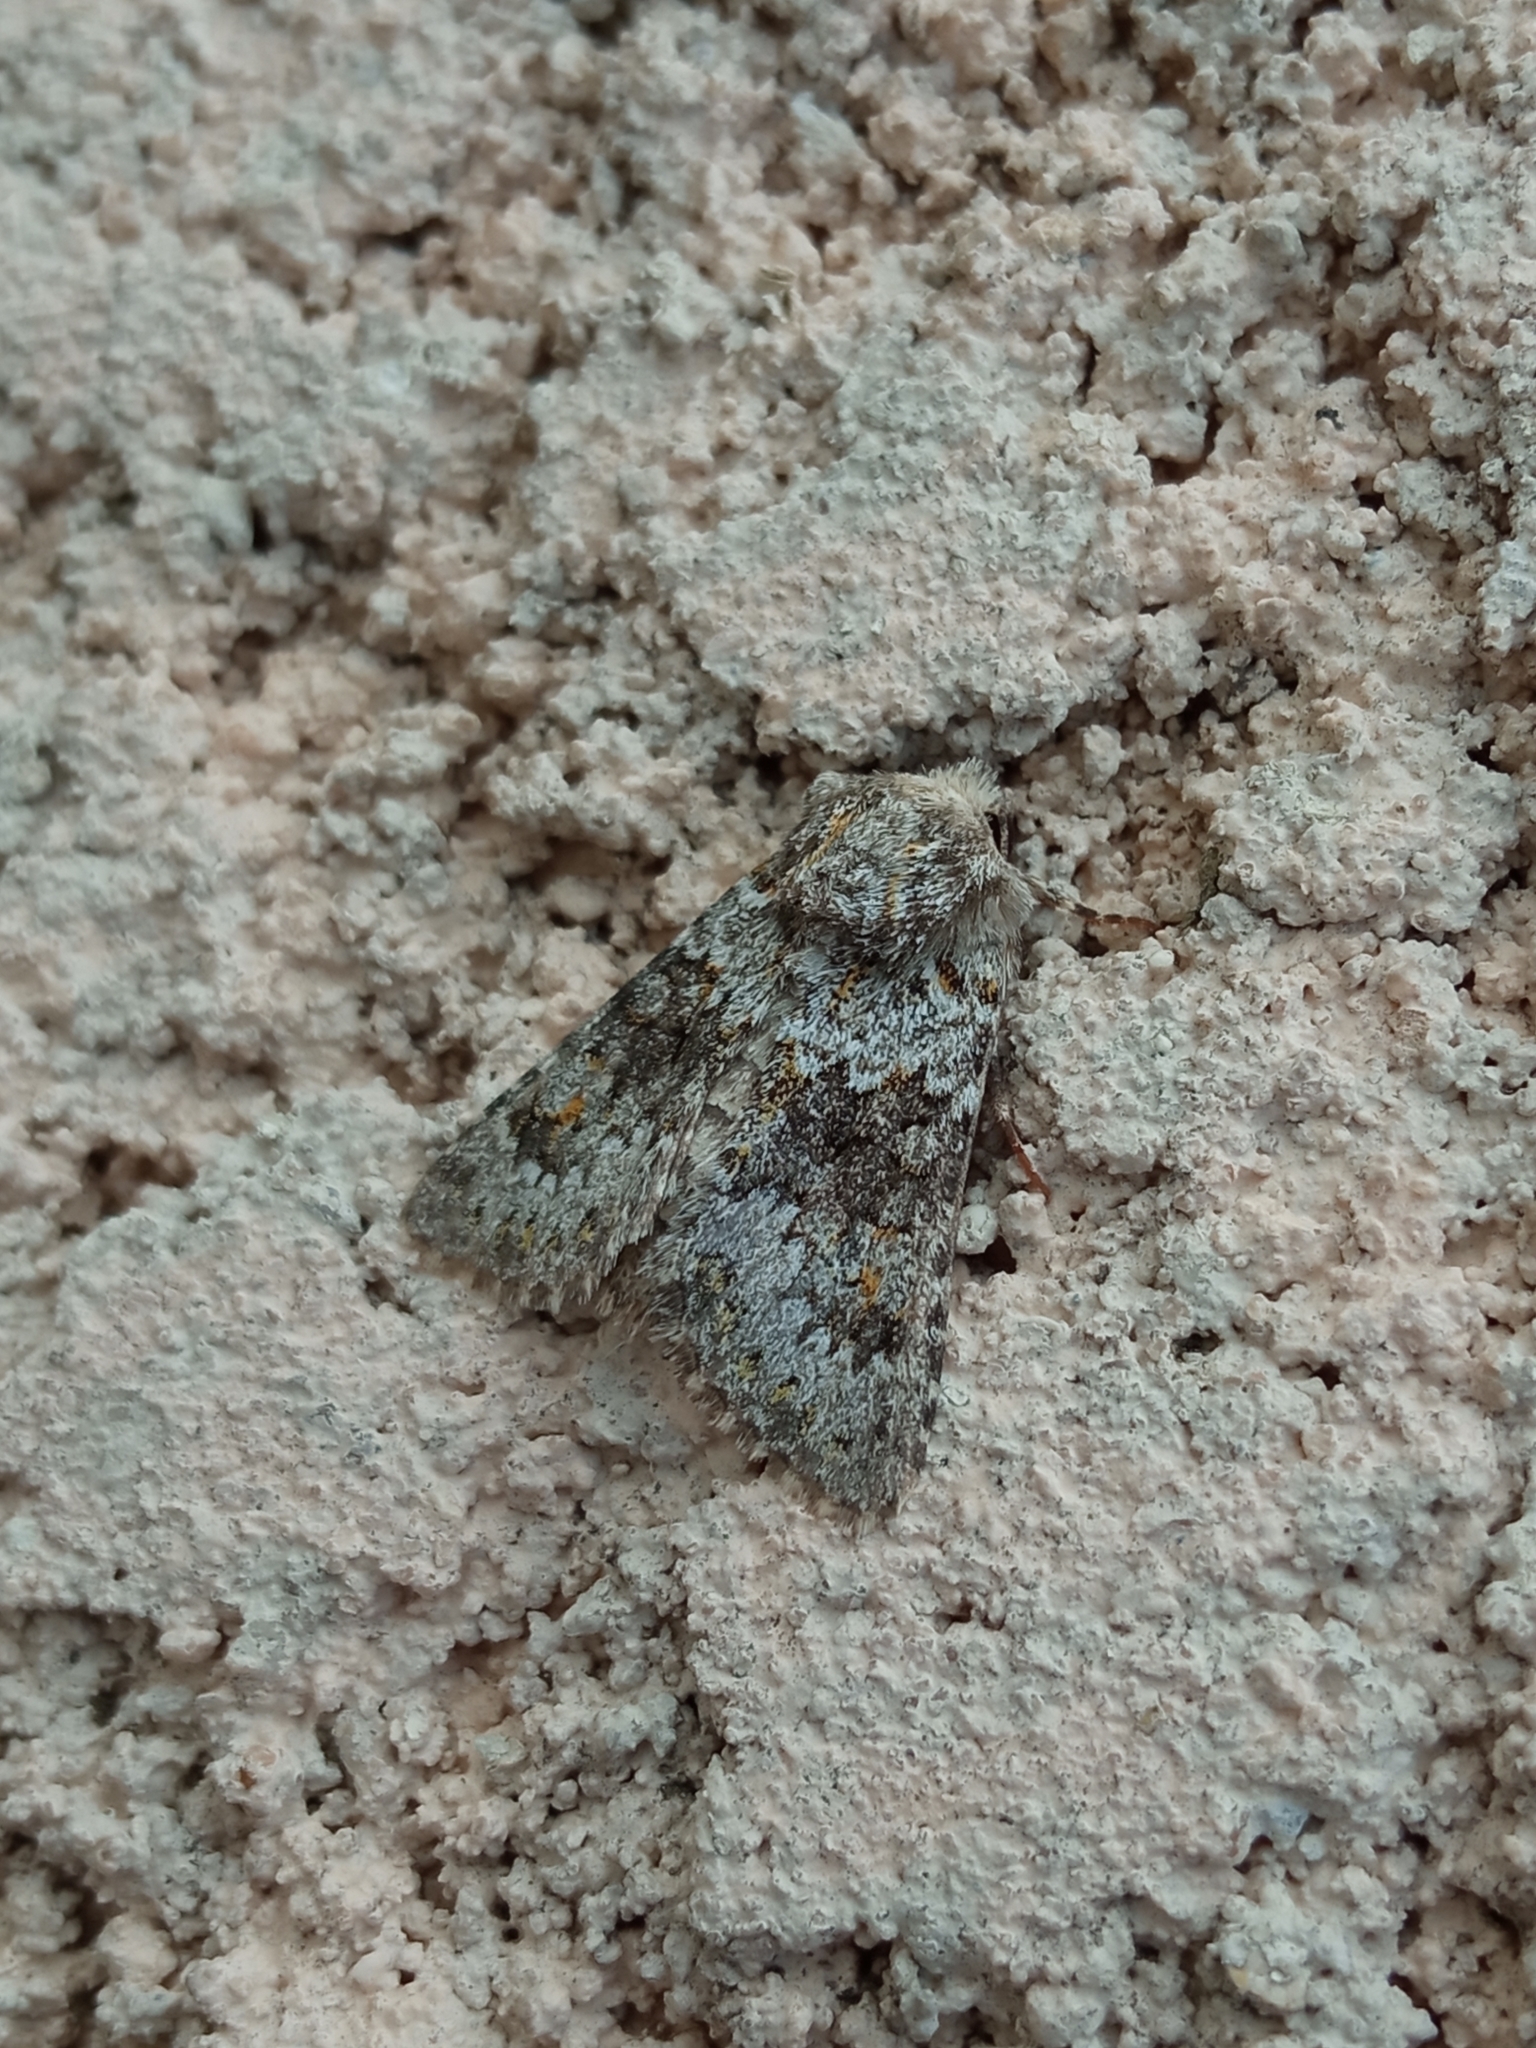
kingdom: Animalia
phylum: Arthropoda
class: Insecta
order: Lepidoptera
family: Noctuidae
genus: Hecatera
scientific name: Hecatera dysodea
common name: Small ranunculus
